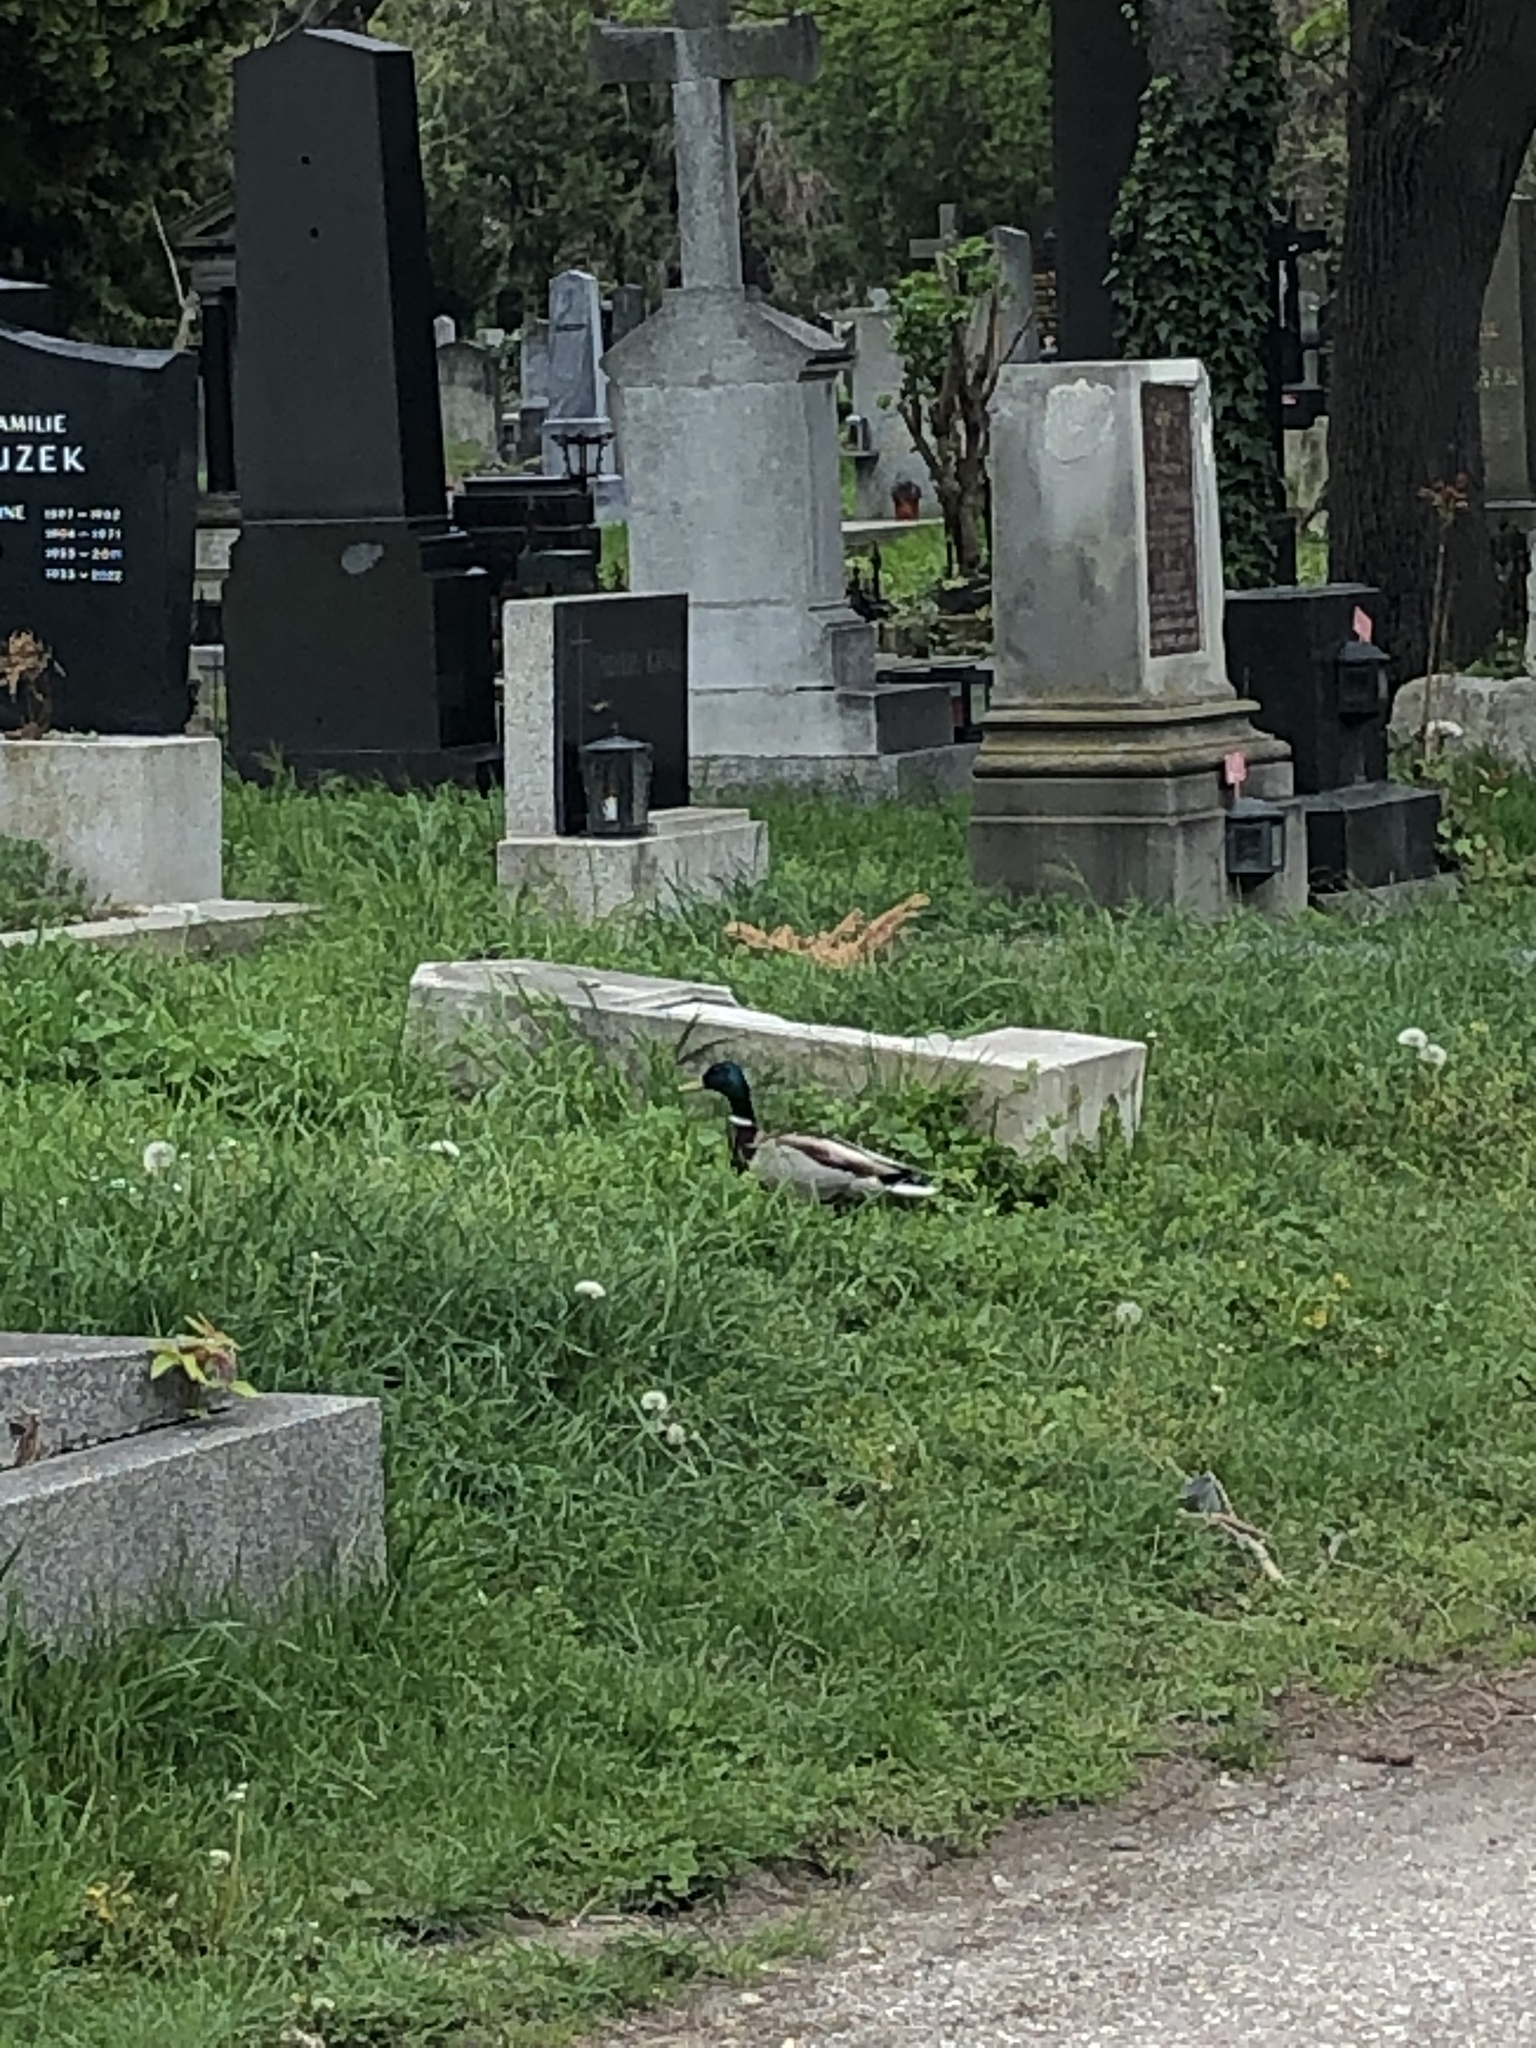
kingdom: Animalia
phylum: Chordata
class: Aves
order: Anseriformes
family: Anatidae
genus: Anas
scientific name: Anas platyrhynchos
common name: Mallard
